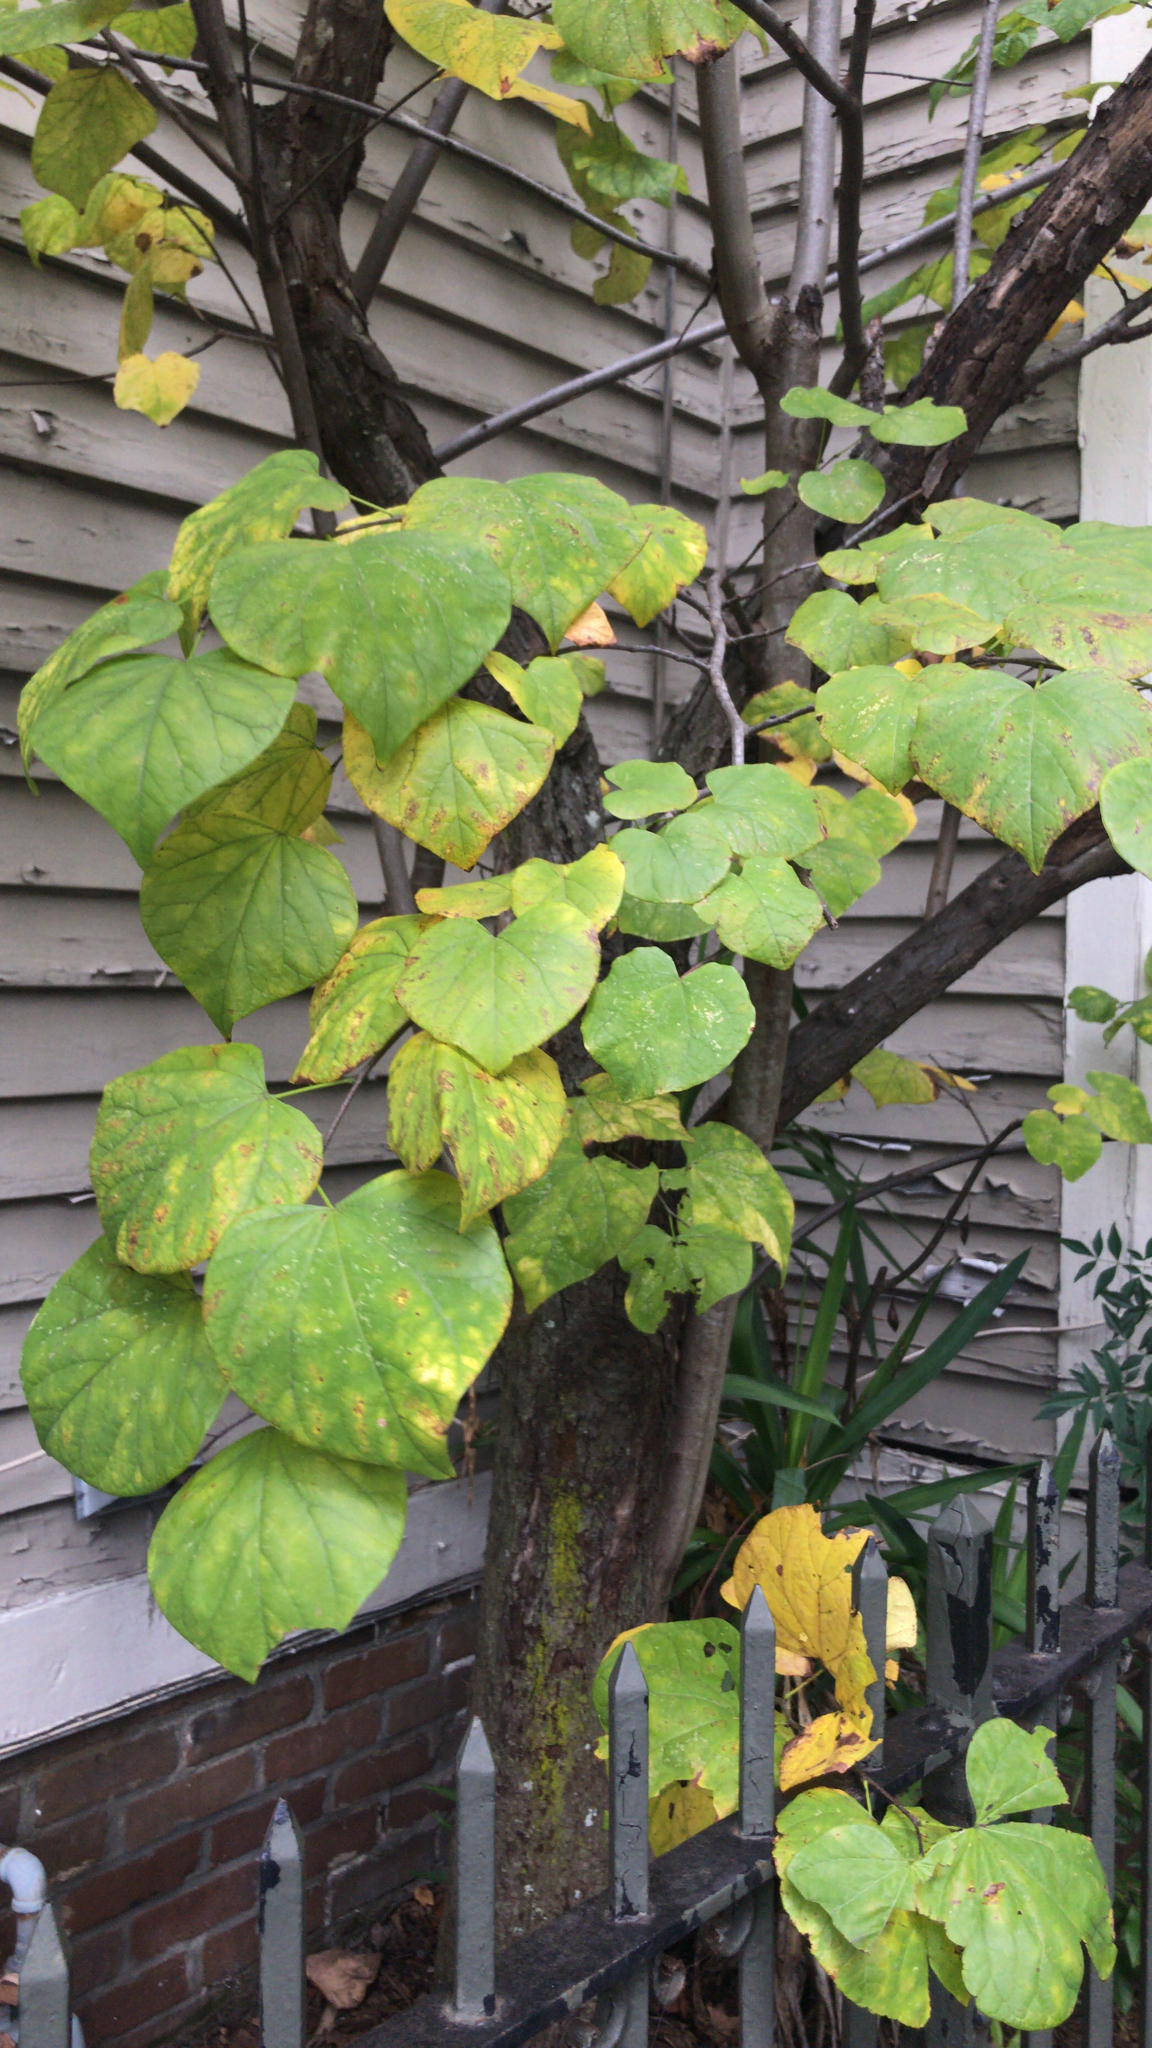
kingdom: Plantae
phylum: Tracheophyta
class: Magnoliopsida
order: Fabales
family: Fabaceae
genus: Cercis
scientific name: Cercis canadensis
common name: Eastern redbud
